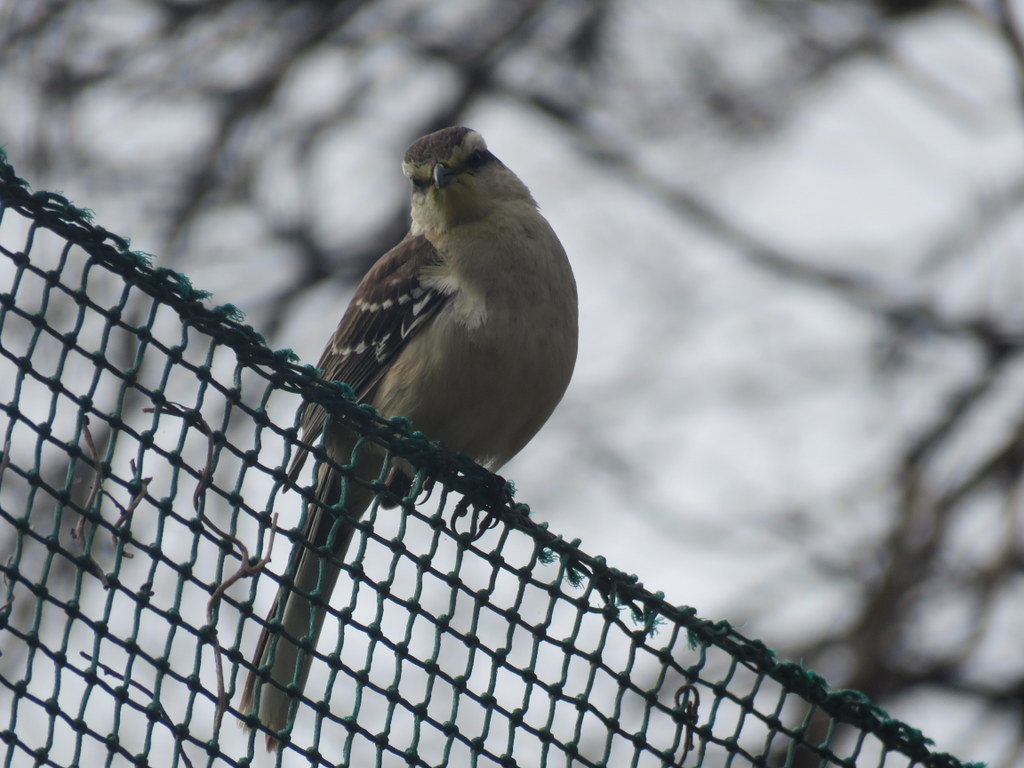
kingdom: Animalia
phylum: Chordata
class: Aves
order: Passeriformes
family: Mimidae
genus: Mimus
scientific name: Mimus saturninus
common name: Chalk-browed mockingbird
